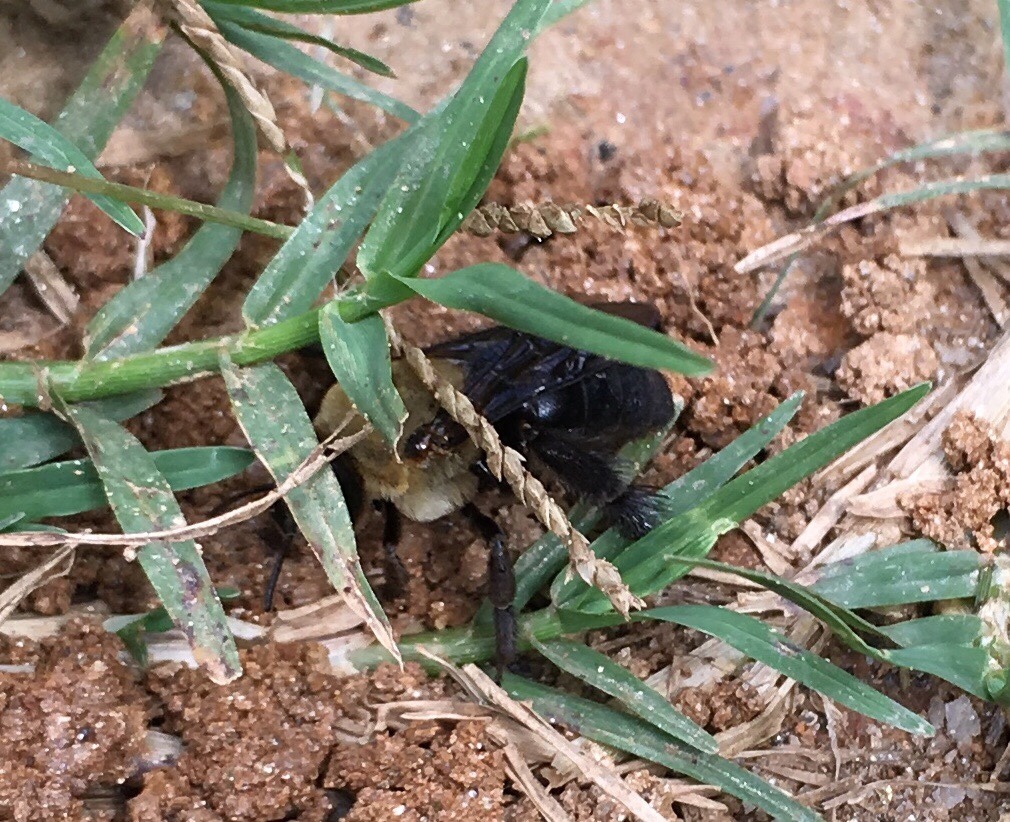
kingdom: Animalia
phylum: Arthropoda
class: Insecta
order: Hymenoptera
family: Apidae
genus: Ptilothrix
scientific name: Ptilothrix bombiformis
